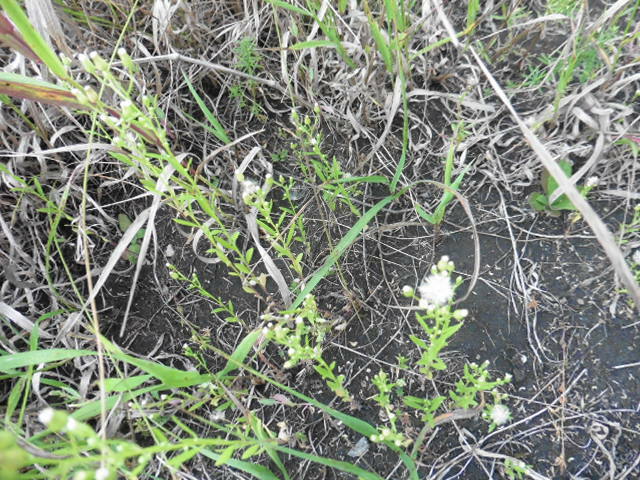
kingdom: Plantae
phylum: Tracheophyta
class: Magnoliopsida
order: Asterales
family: Asteraceae
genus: Erigeron
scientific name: Erigeron canadensis
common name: Canadian fleabane
